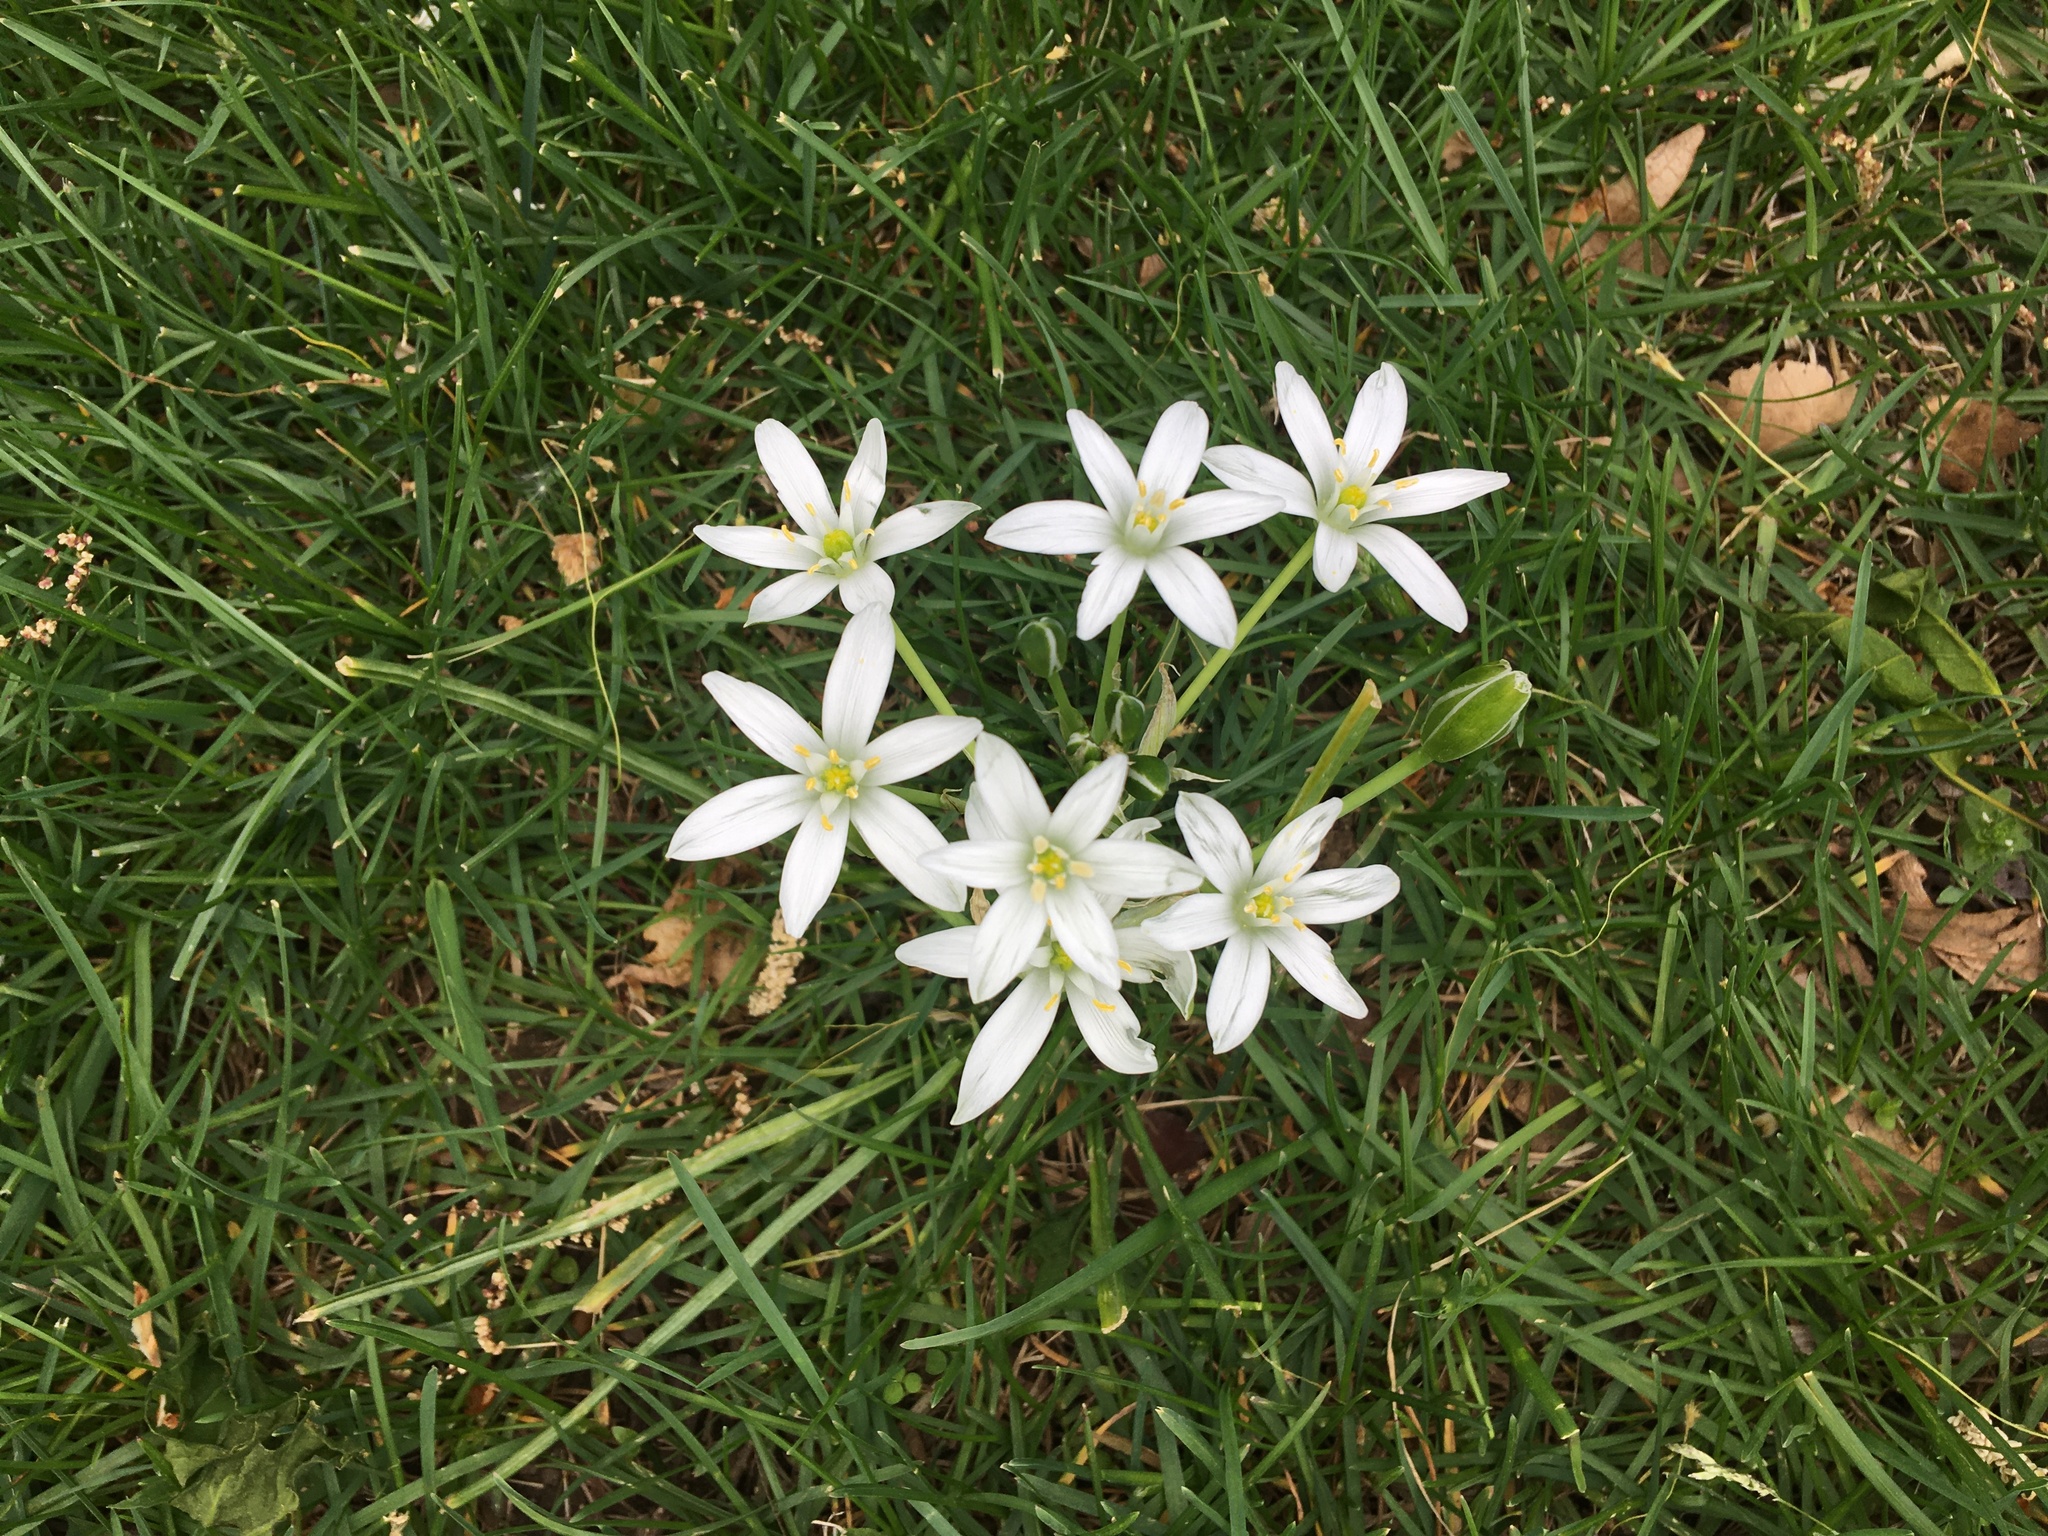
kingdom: Plantae
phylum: Tracheophyta
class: Liliopsida
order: Asparagales
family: Asparagaceae
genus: Ornithogalum
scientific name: Ornithogalum umbellatum
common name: Garden star-of-bethlehem
